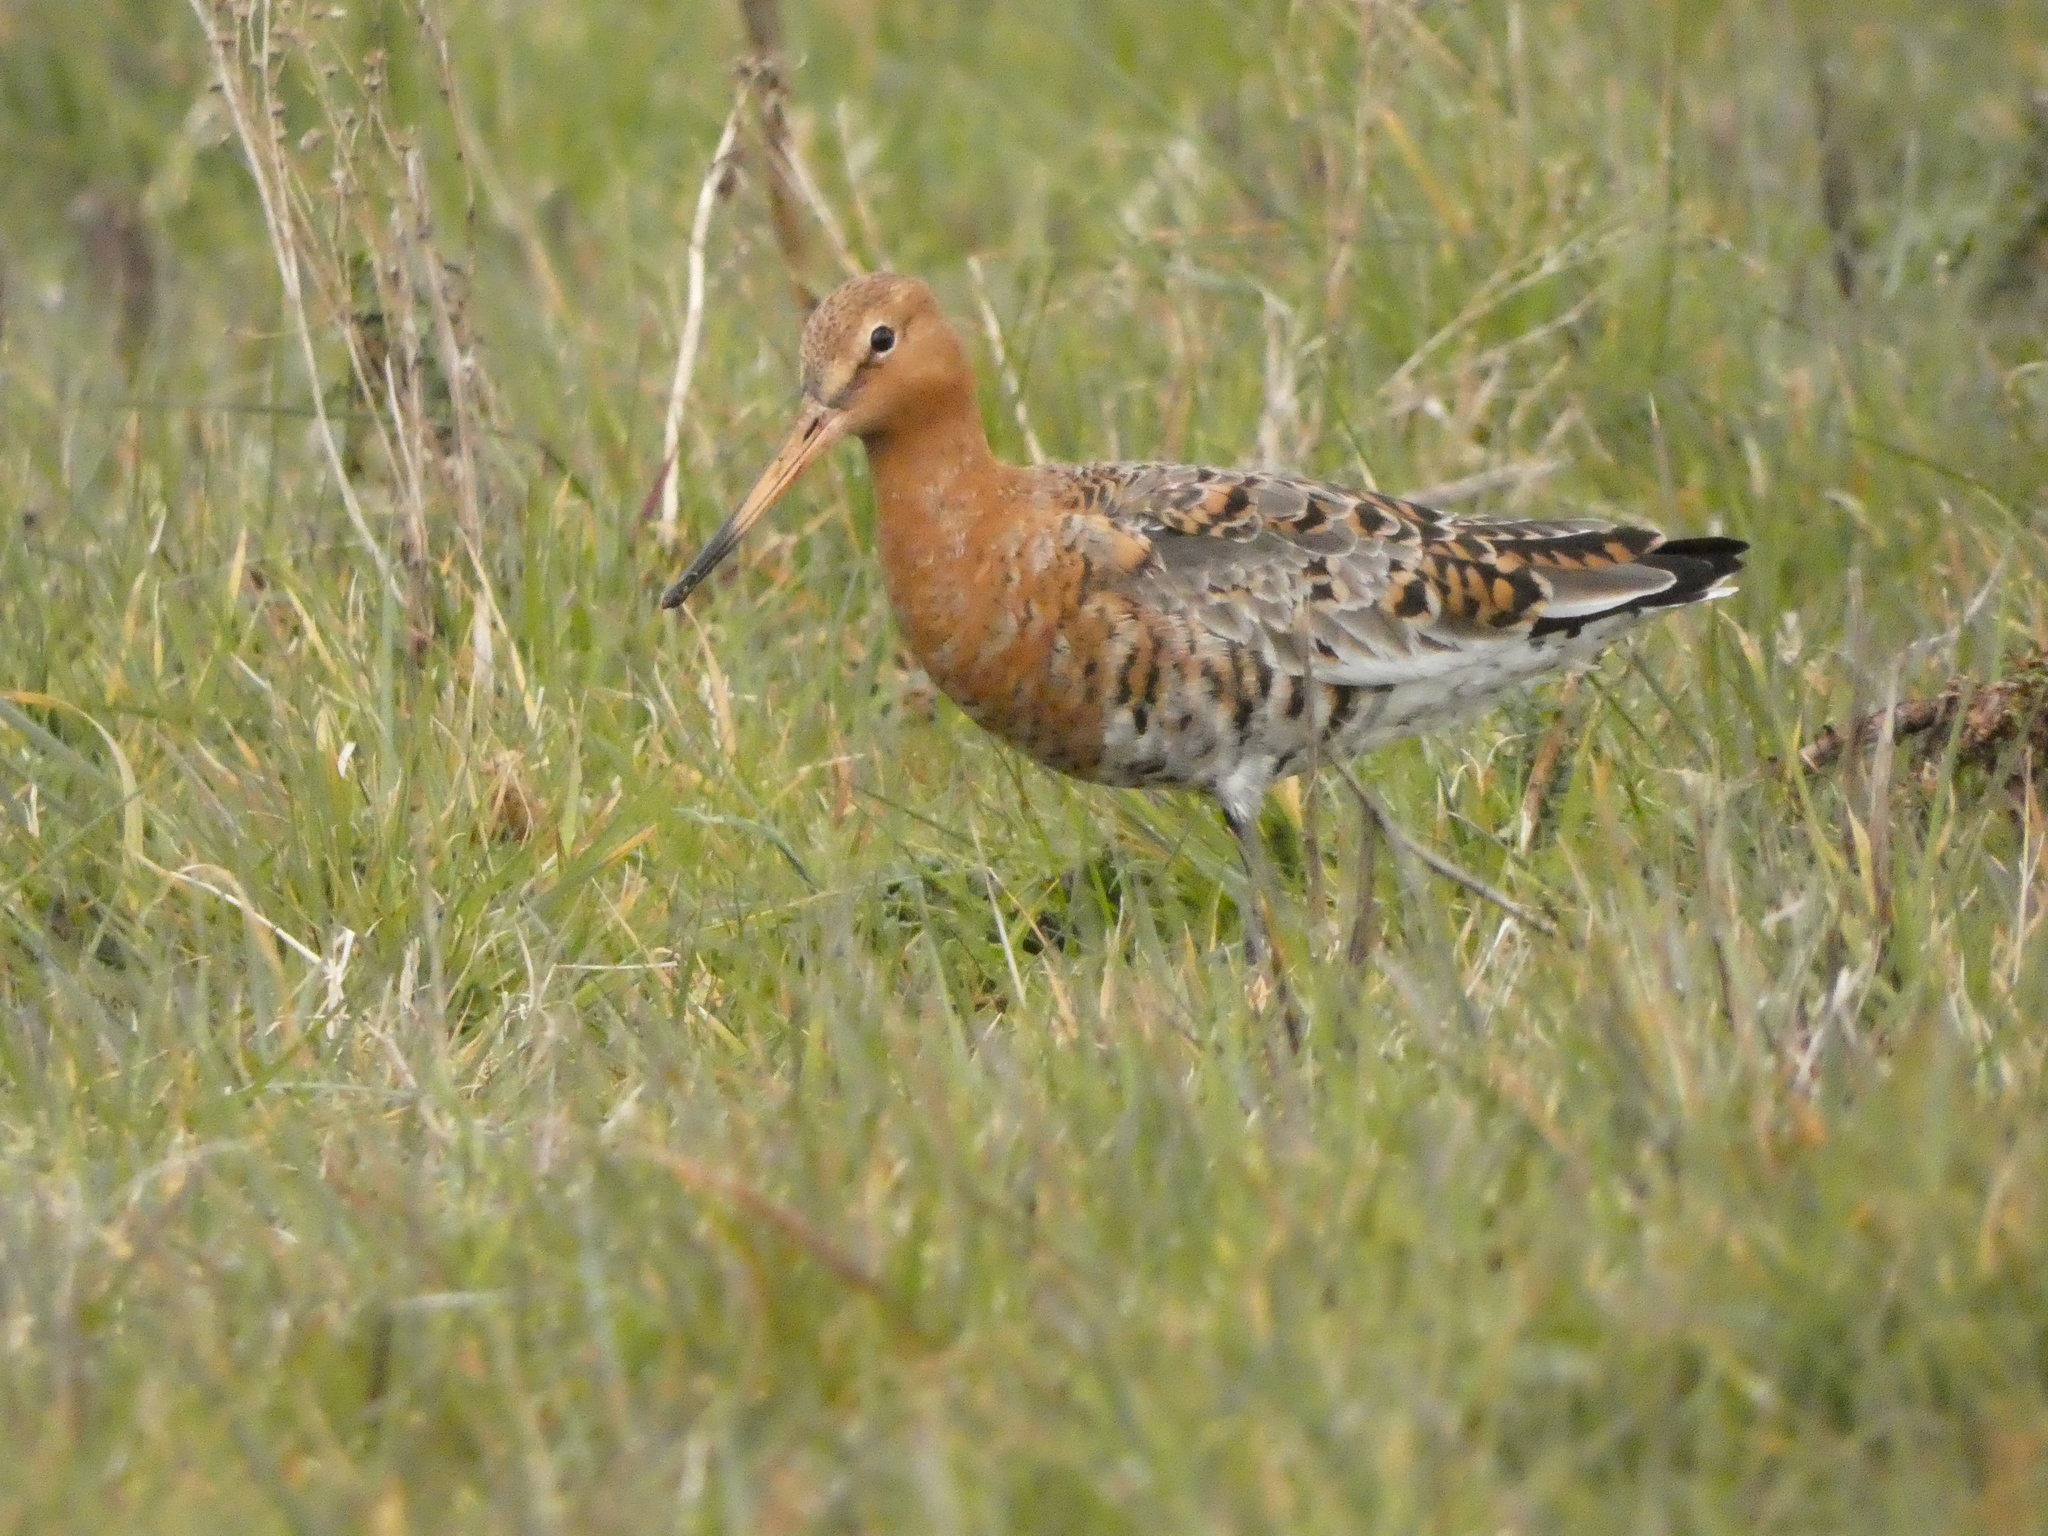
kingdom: Animalia
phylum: Chordata
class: Aves
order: Charadriiformes
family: Scolopacidae
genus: Limosa
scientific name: Limosa limosa
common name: Black-tailed godwit
